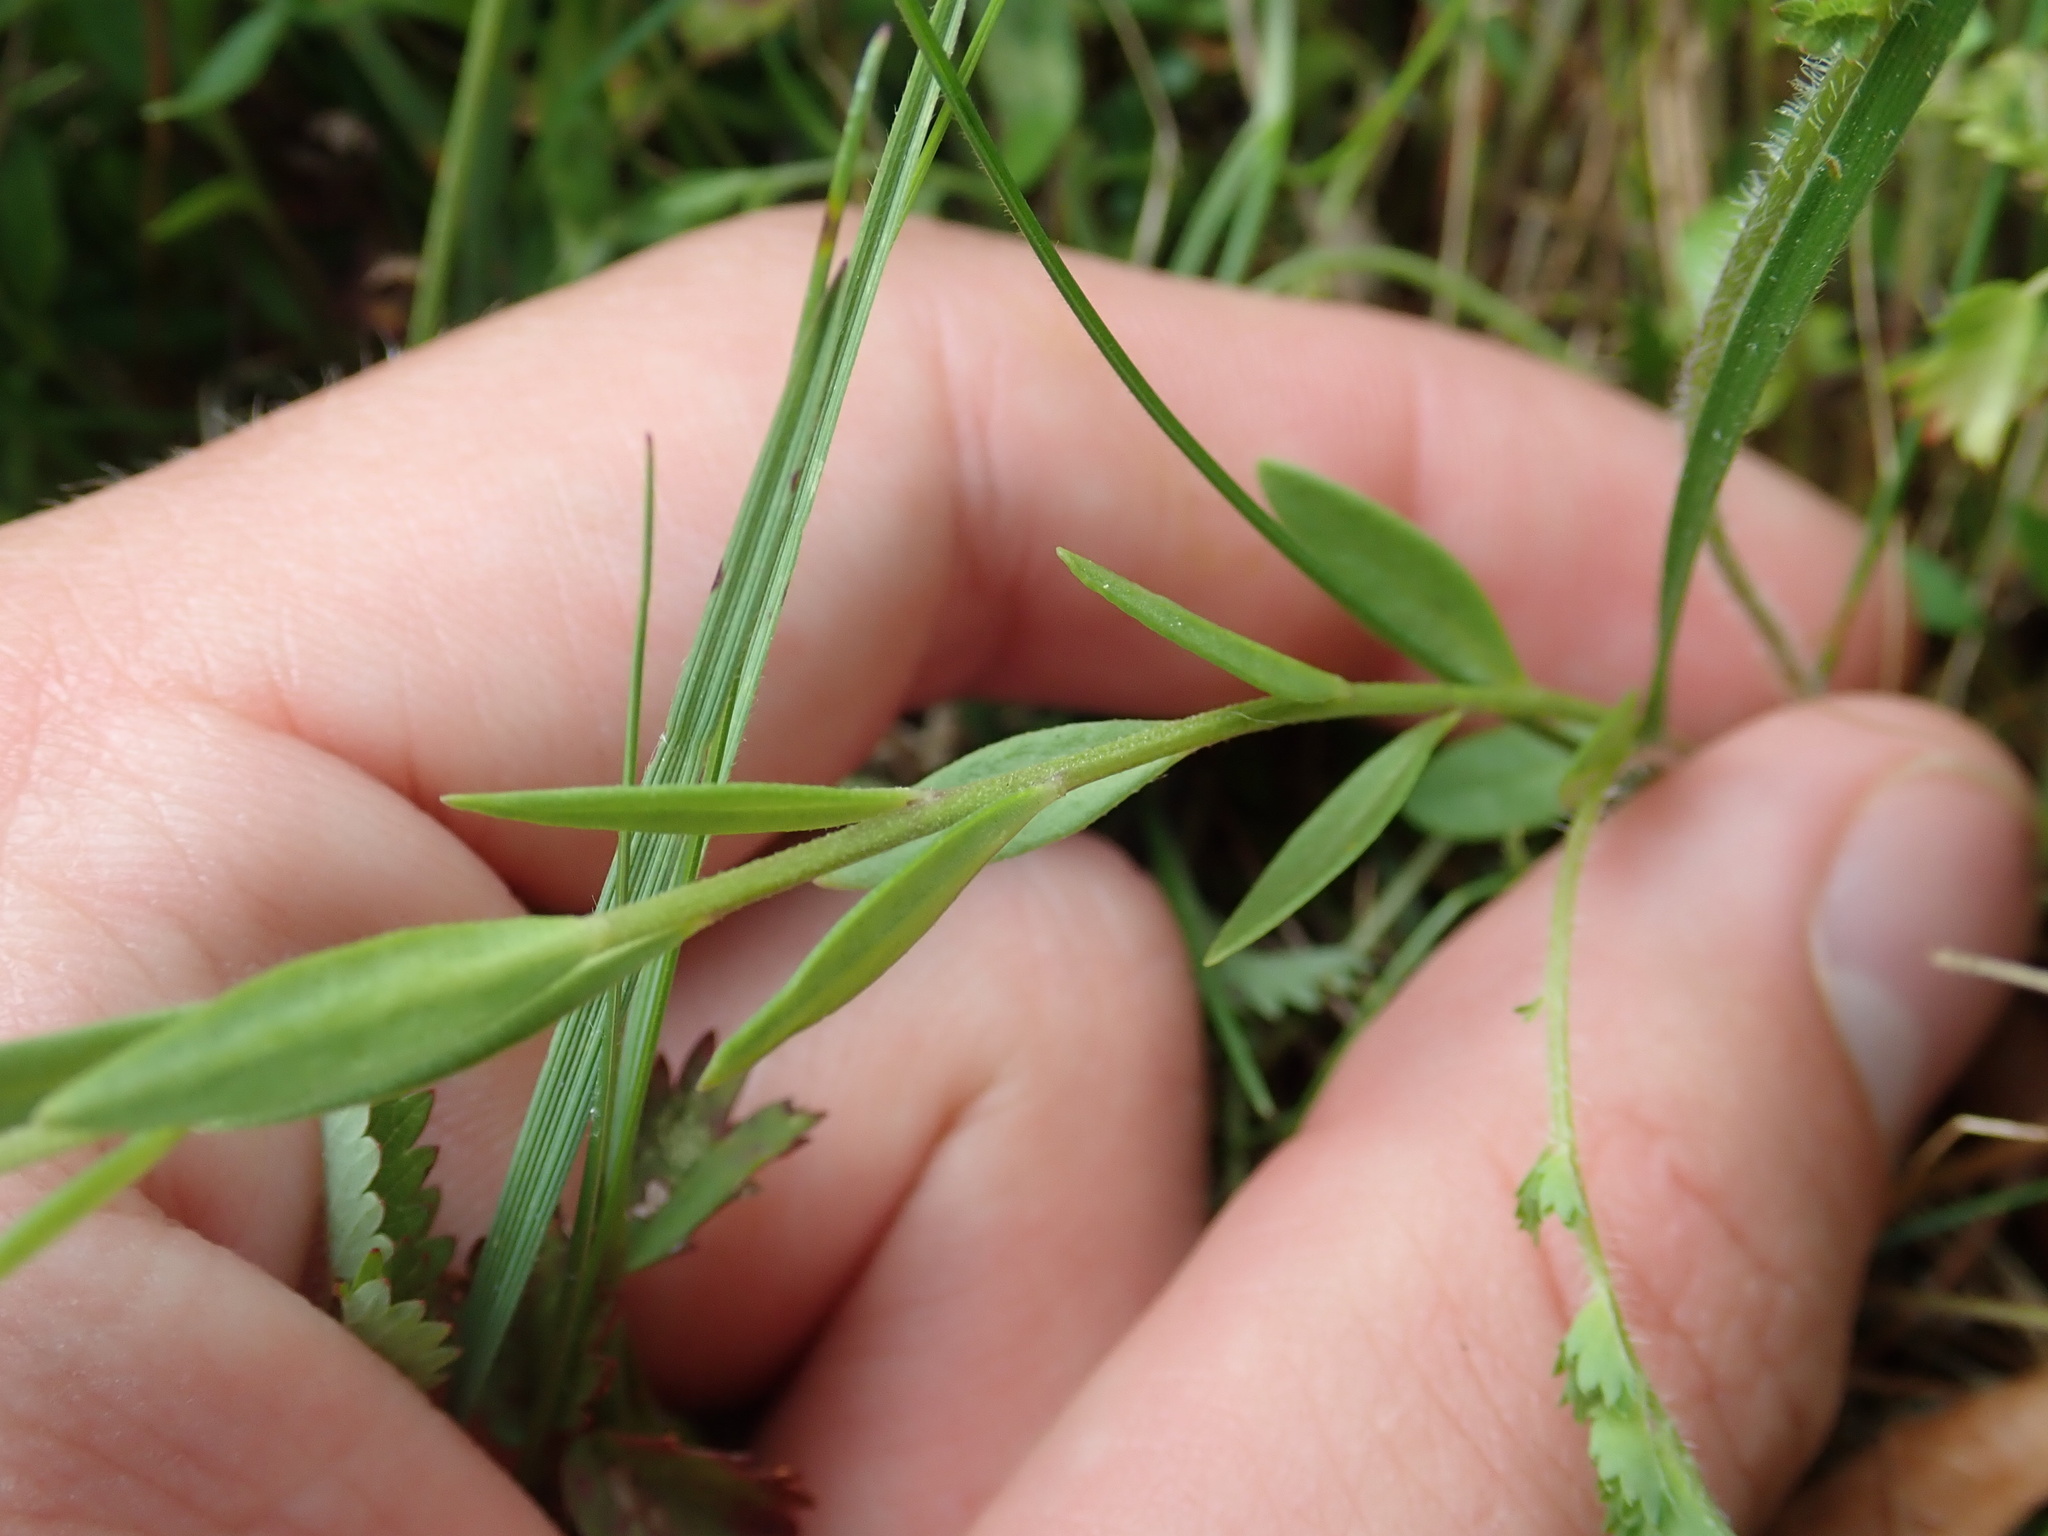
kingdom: Plantae
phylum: Tracheophyta
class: Magnoliopsida
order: Fabales
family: Polygalaceae
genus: Polygala
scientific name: Polygala vulgaris
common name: Common milkwort
